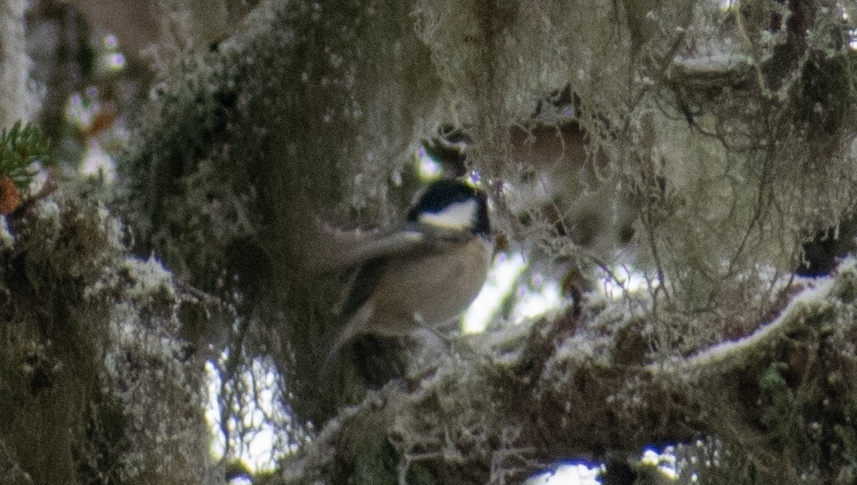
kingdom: Animalia
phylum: Chordata
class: Aves
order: Passeriformes
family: Paridae
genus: Periparus
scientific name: Periparus ater
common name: Coal tit
